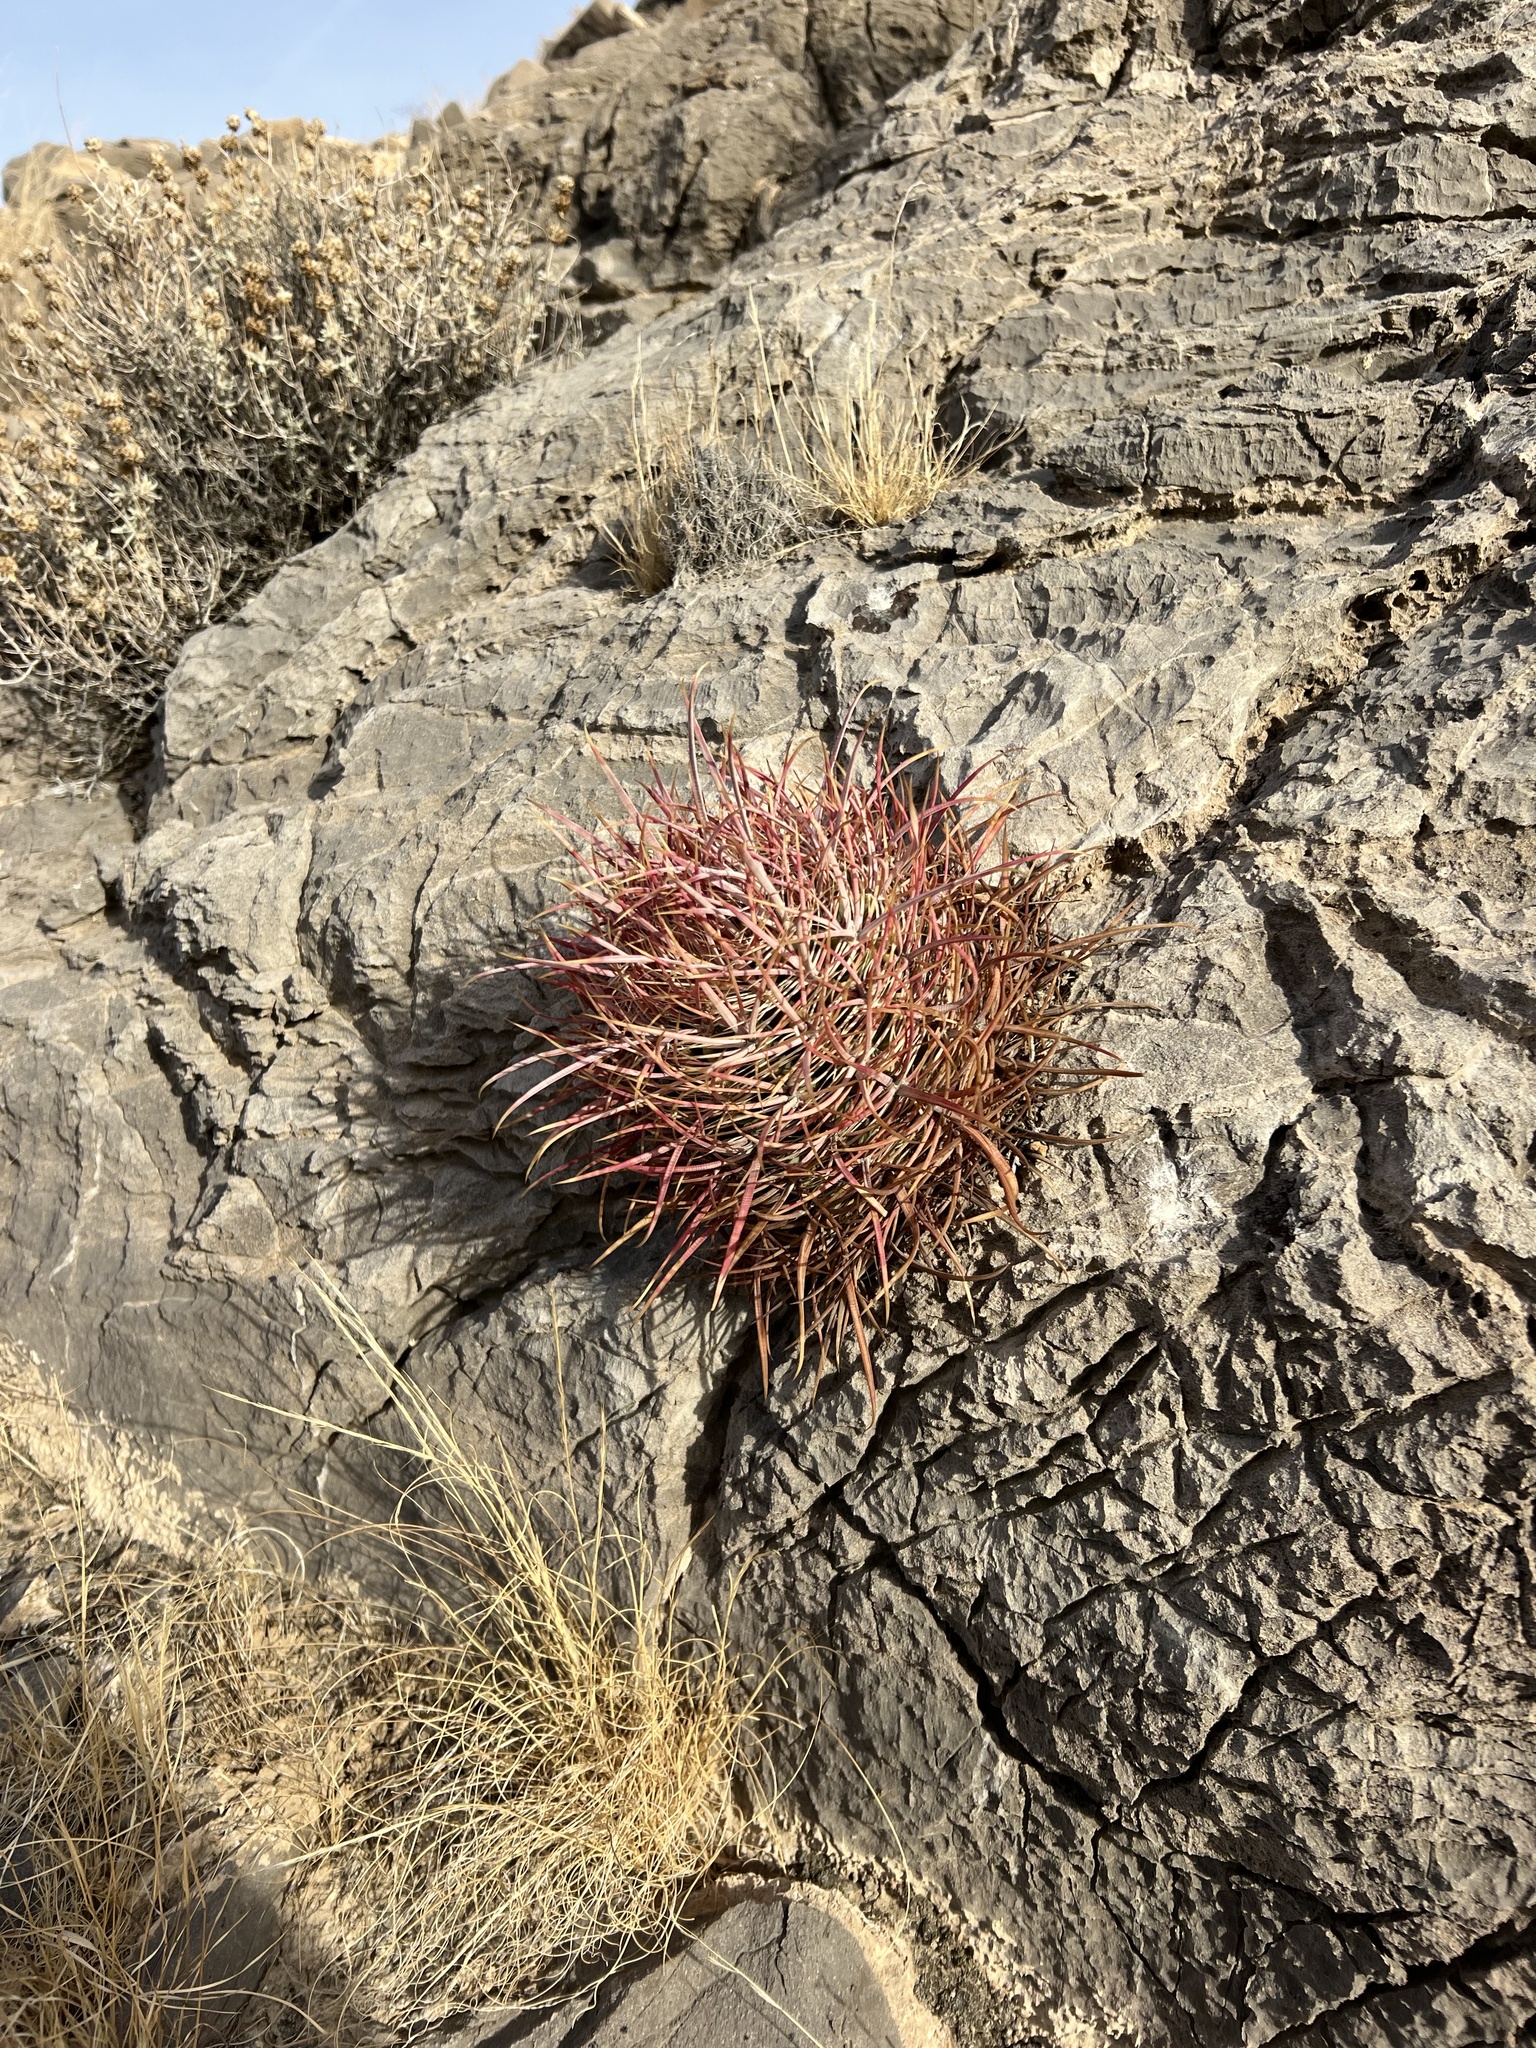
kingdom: Plantae
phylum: Tracheophyta
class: Magnoliopsida
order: Caryophyllales
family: Cactaceae
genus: Ferocactus
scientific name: Ferocactus cylindraceus
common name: California barrel cactus
